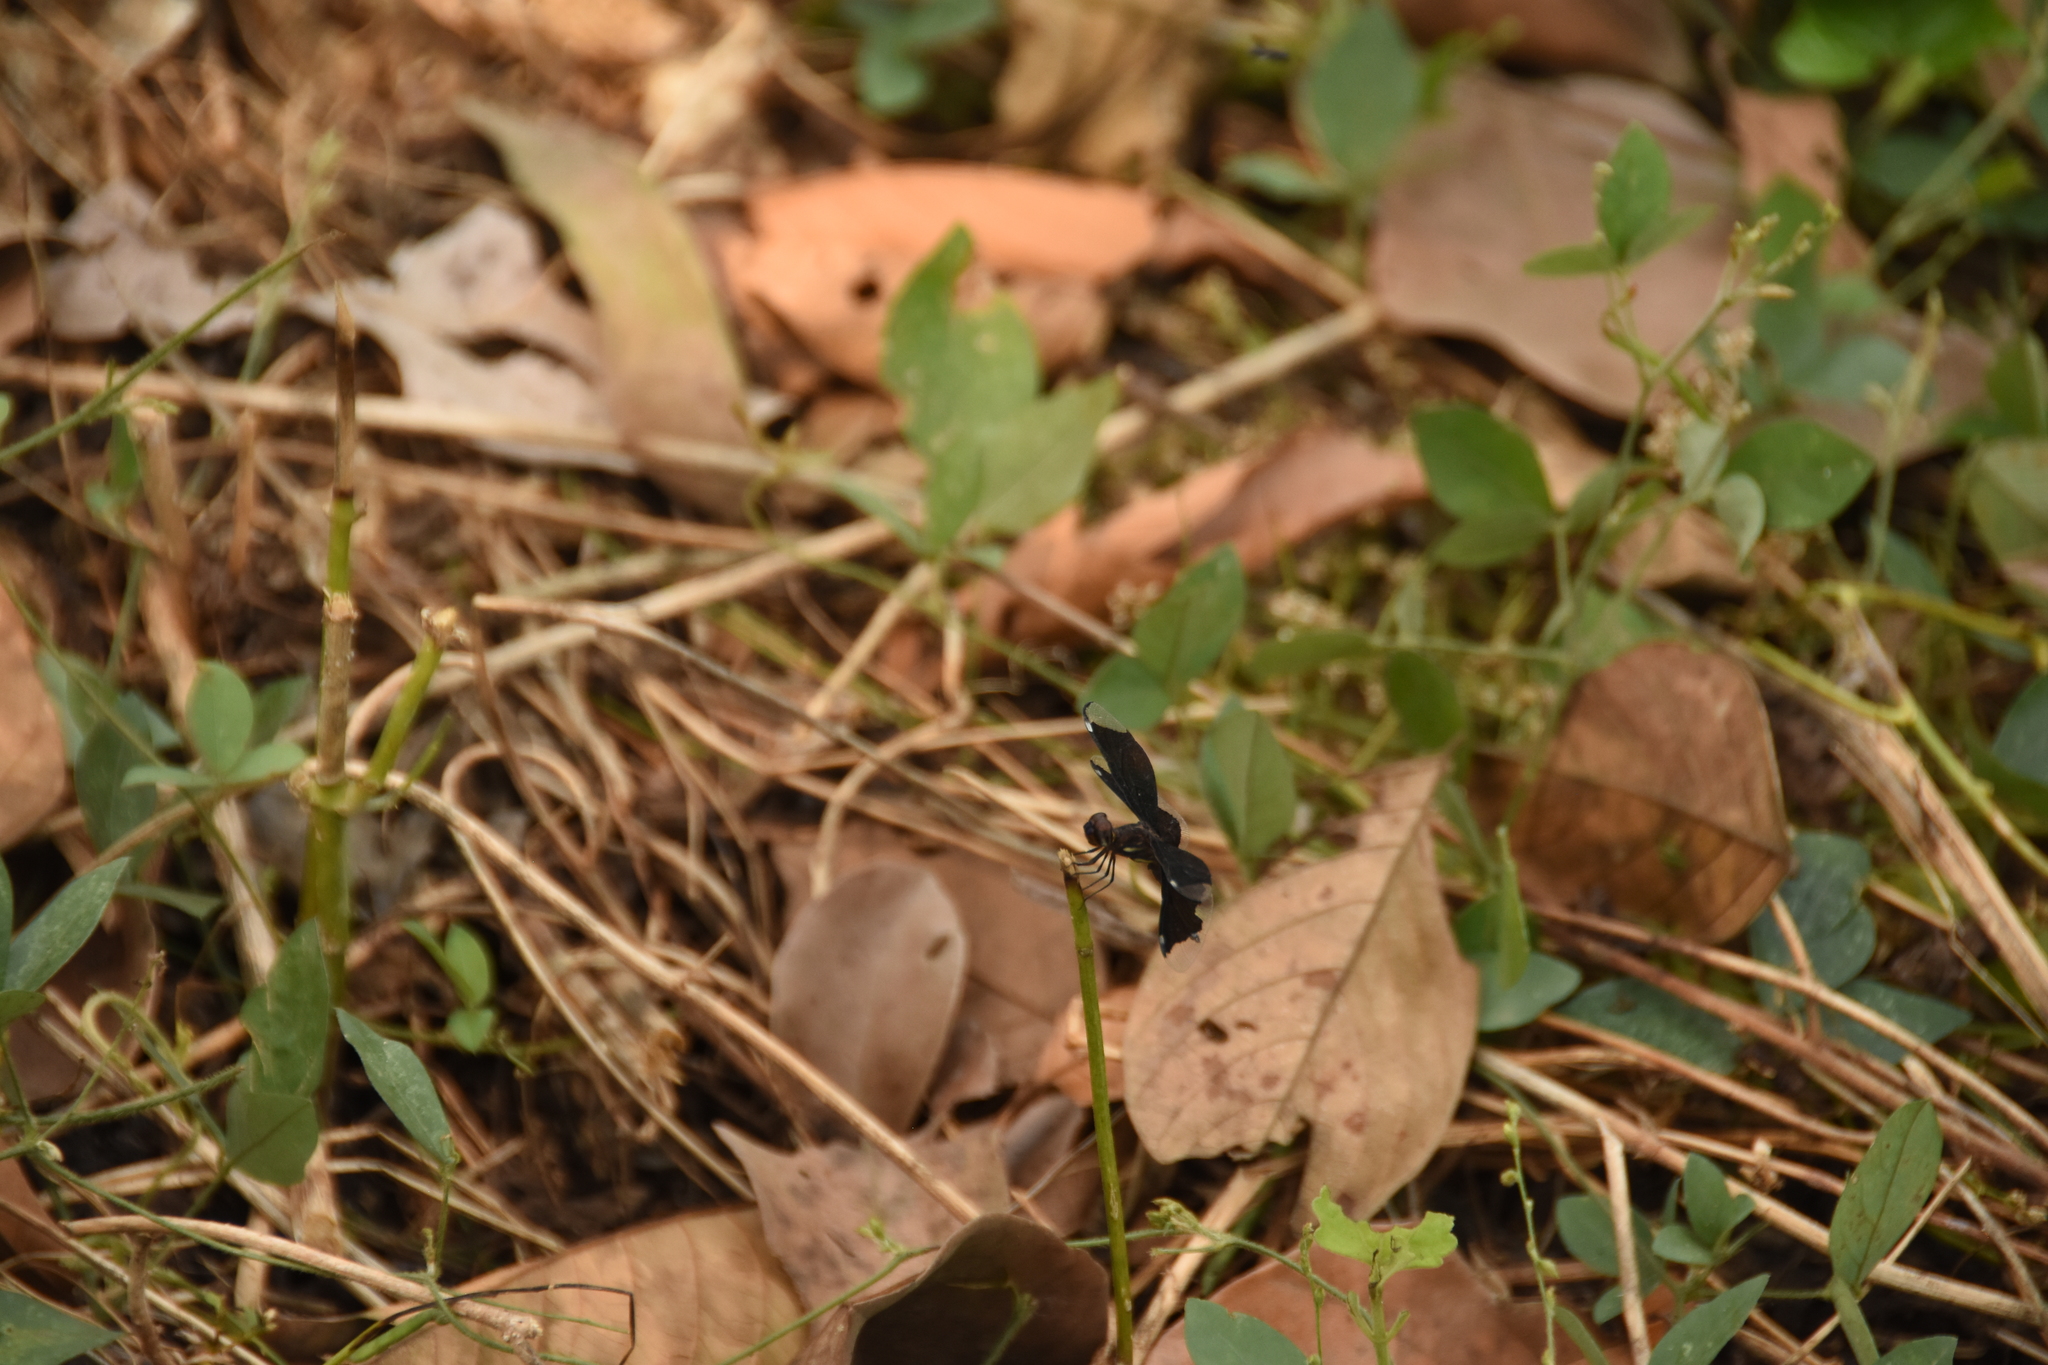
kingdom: Animalia
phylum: Arthropoda
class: Insecta
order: Odonata
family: Libellulidae
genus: Palpopleura
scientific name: Palpopleura lucia
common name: Lucia widow
